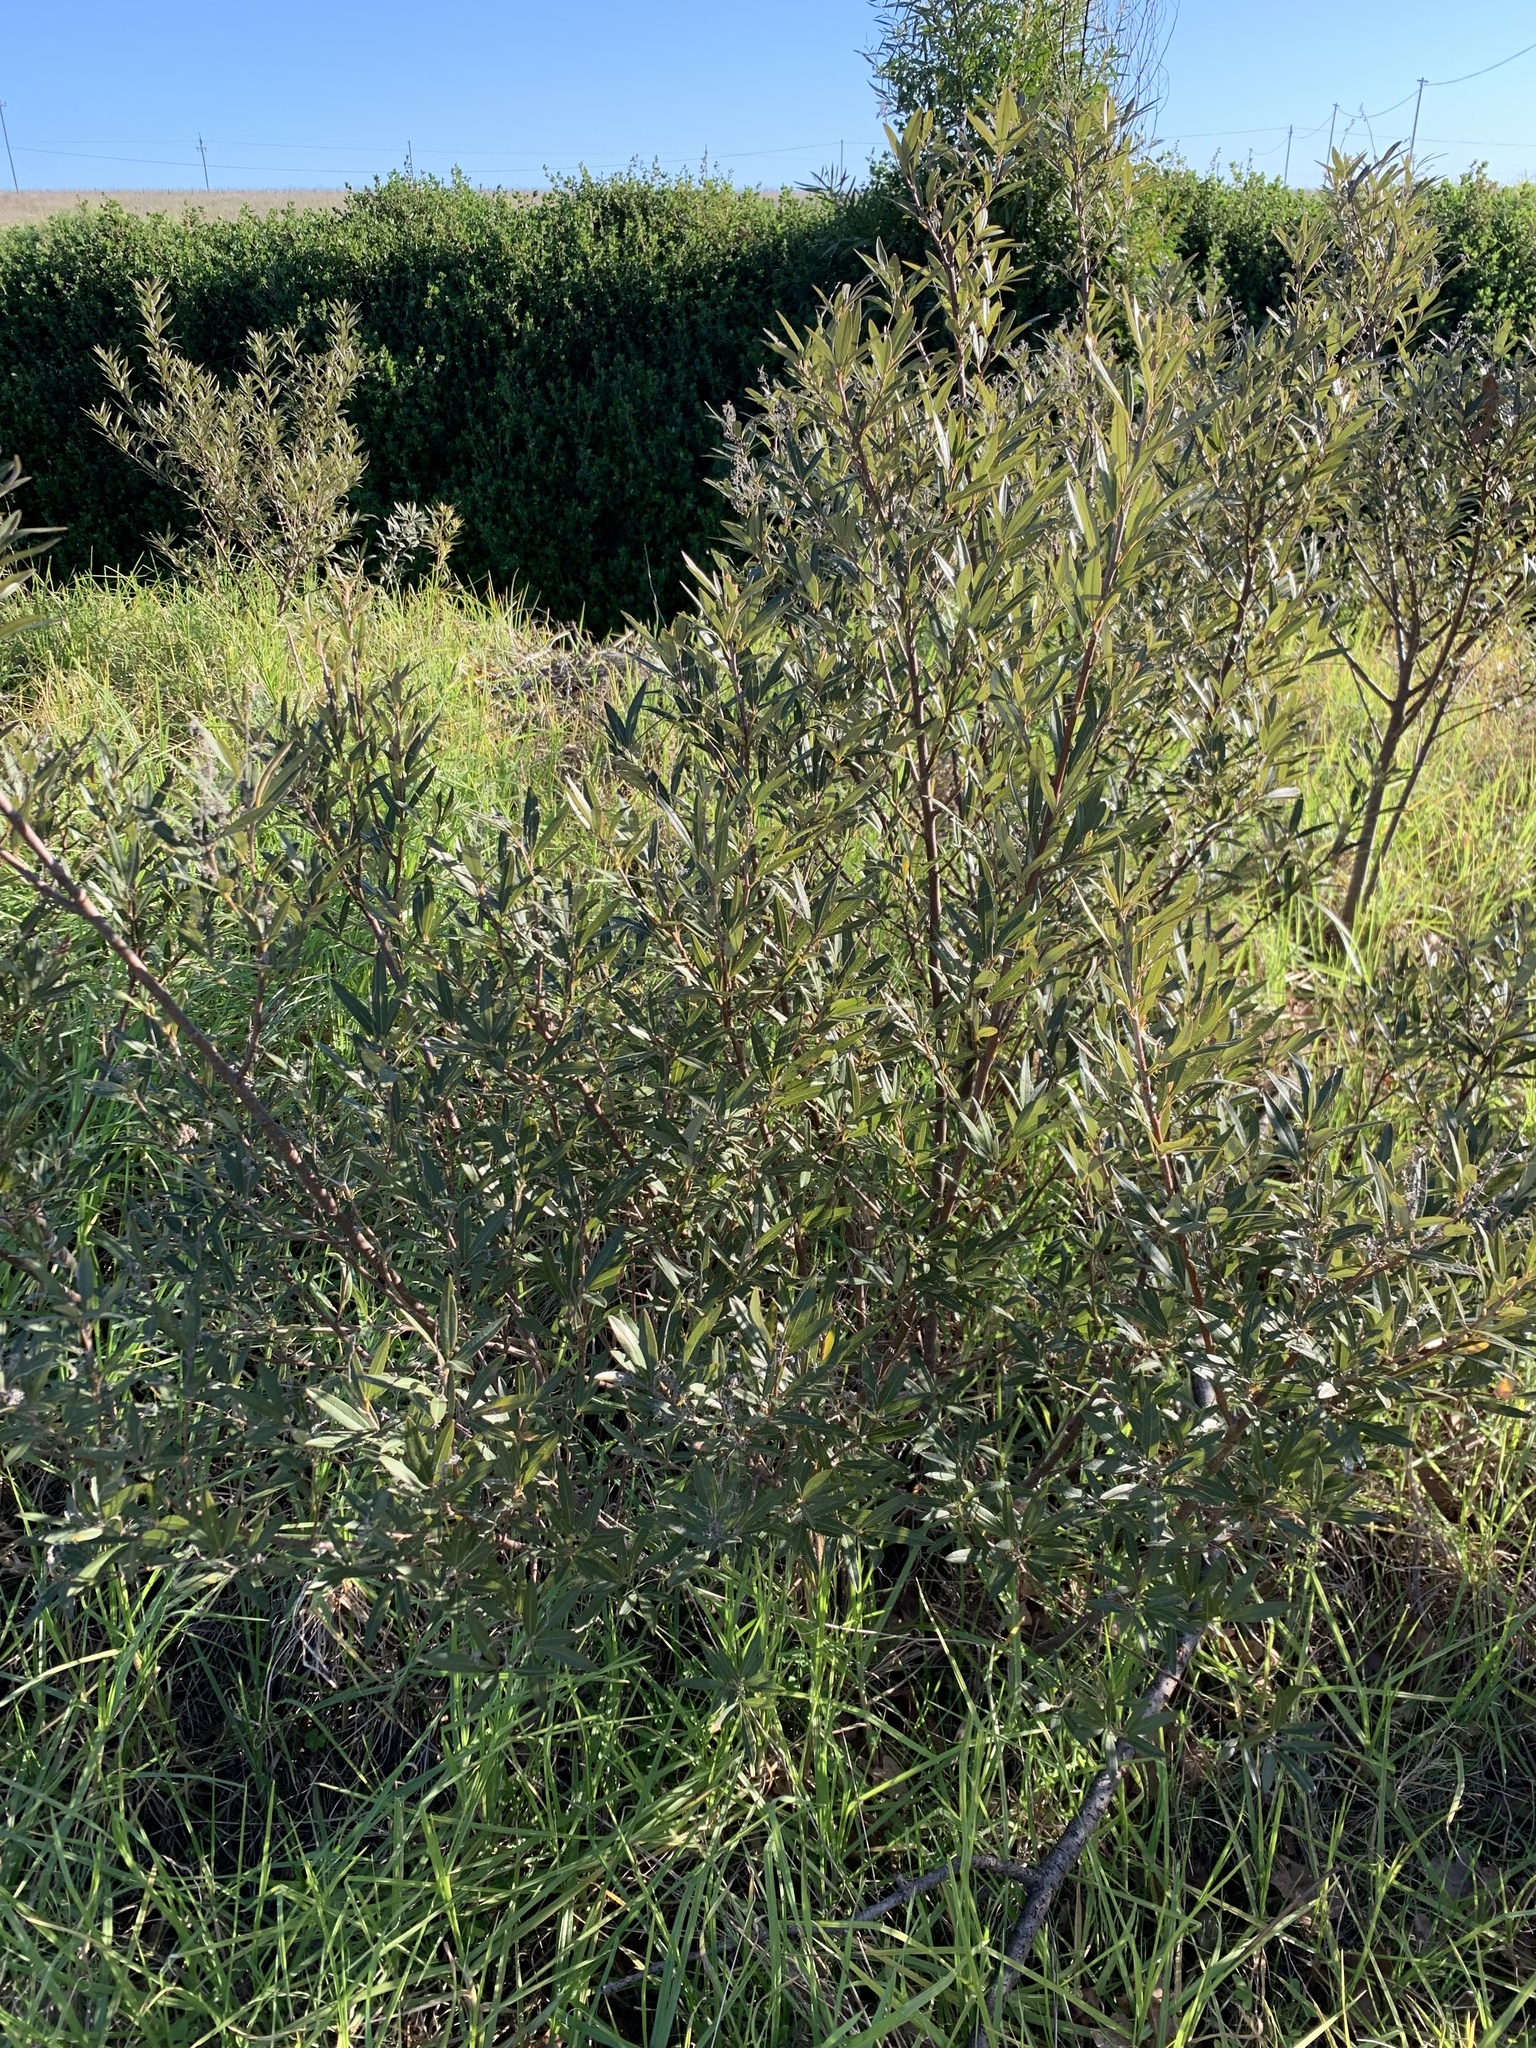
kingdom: Plantae
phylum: Tracheophyta
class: Magnoliopsida
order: Sapindales
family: Anacardiaceae
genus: Searsia
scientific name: Searsia angustifolia
